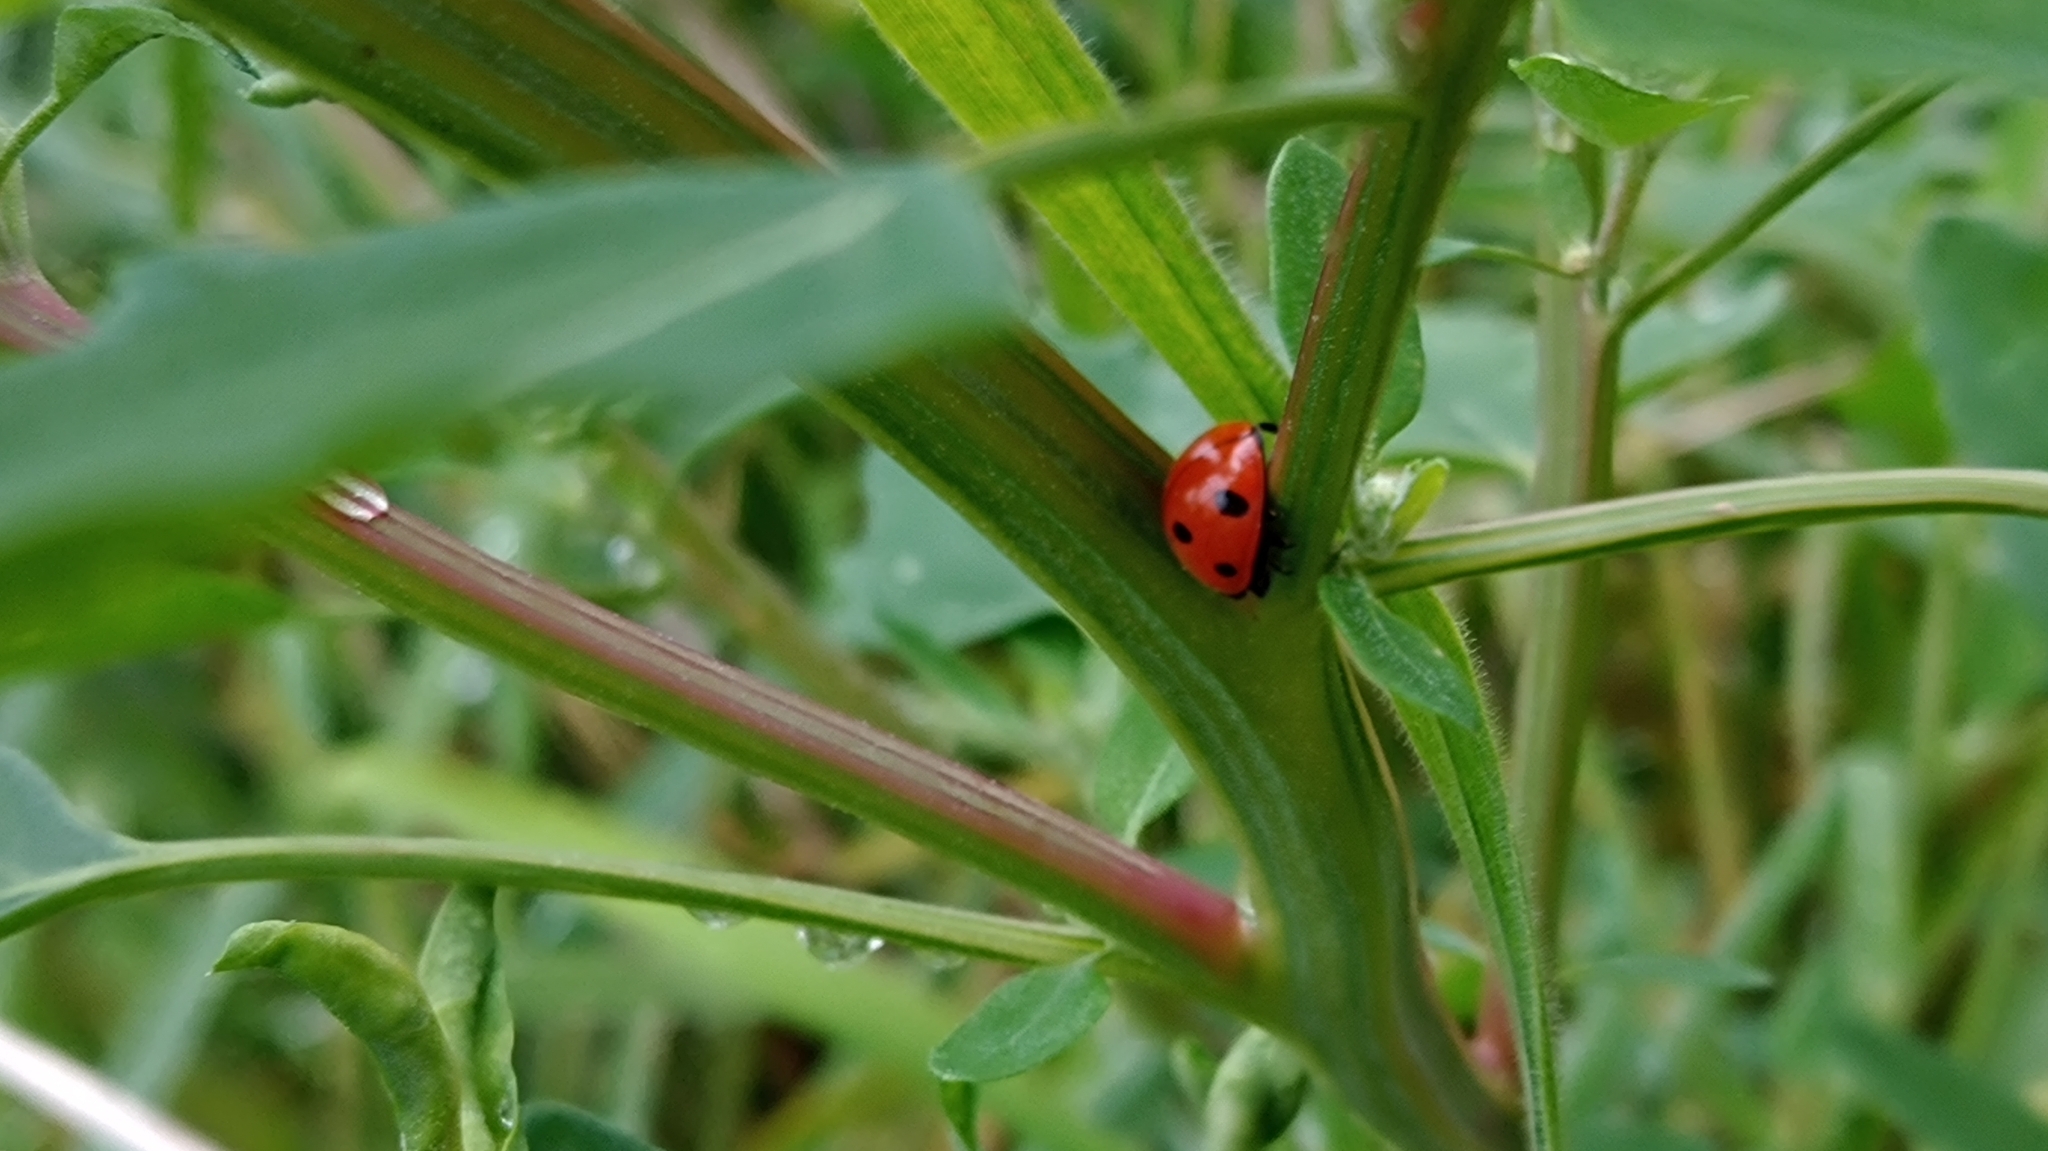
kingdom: Animalia
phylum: Arthropoda
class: Insecta
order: Coleoptera
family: Coccinellidae
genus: Coccinella
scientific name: Coccinella septempunctata
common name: Sevenspotted lady beetle
